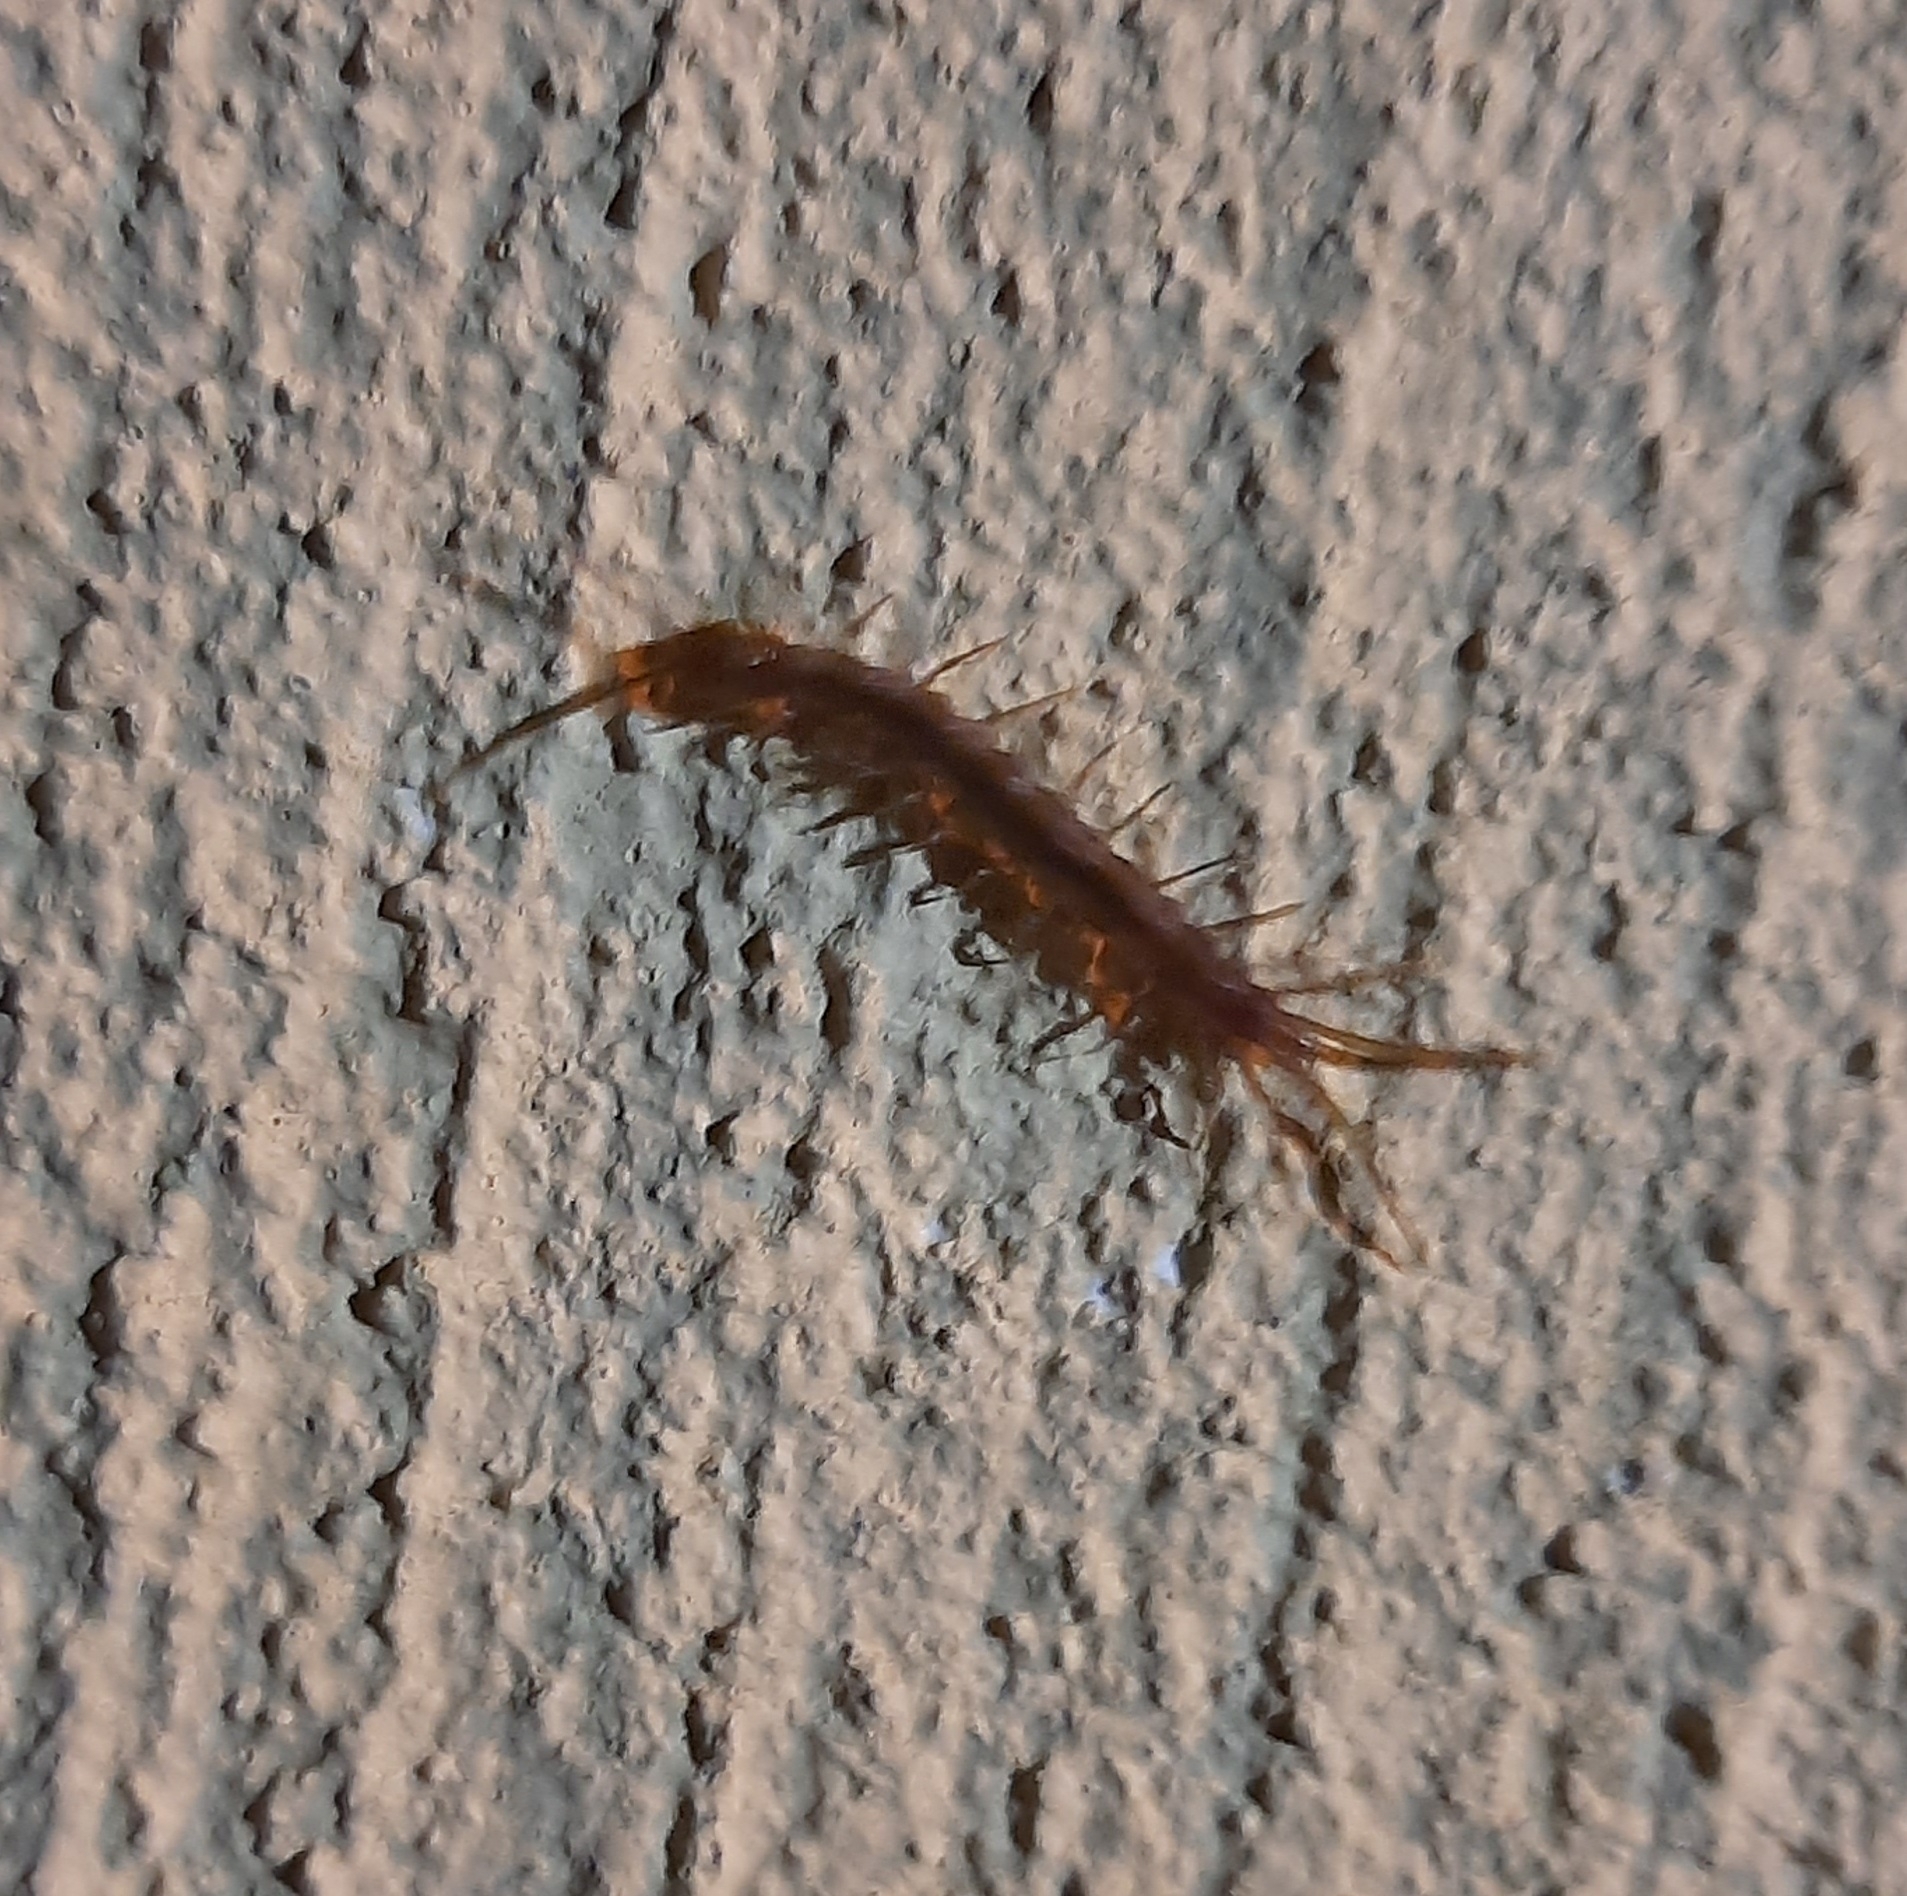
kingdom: Animalia
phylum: Arthropoda
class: Chilopoda
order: Lithobiomorpha
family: Lithobiidae
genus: Lithobius
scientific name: Lithobius forficatus
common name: Centipede
